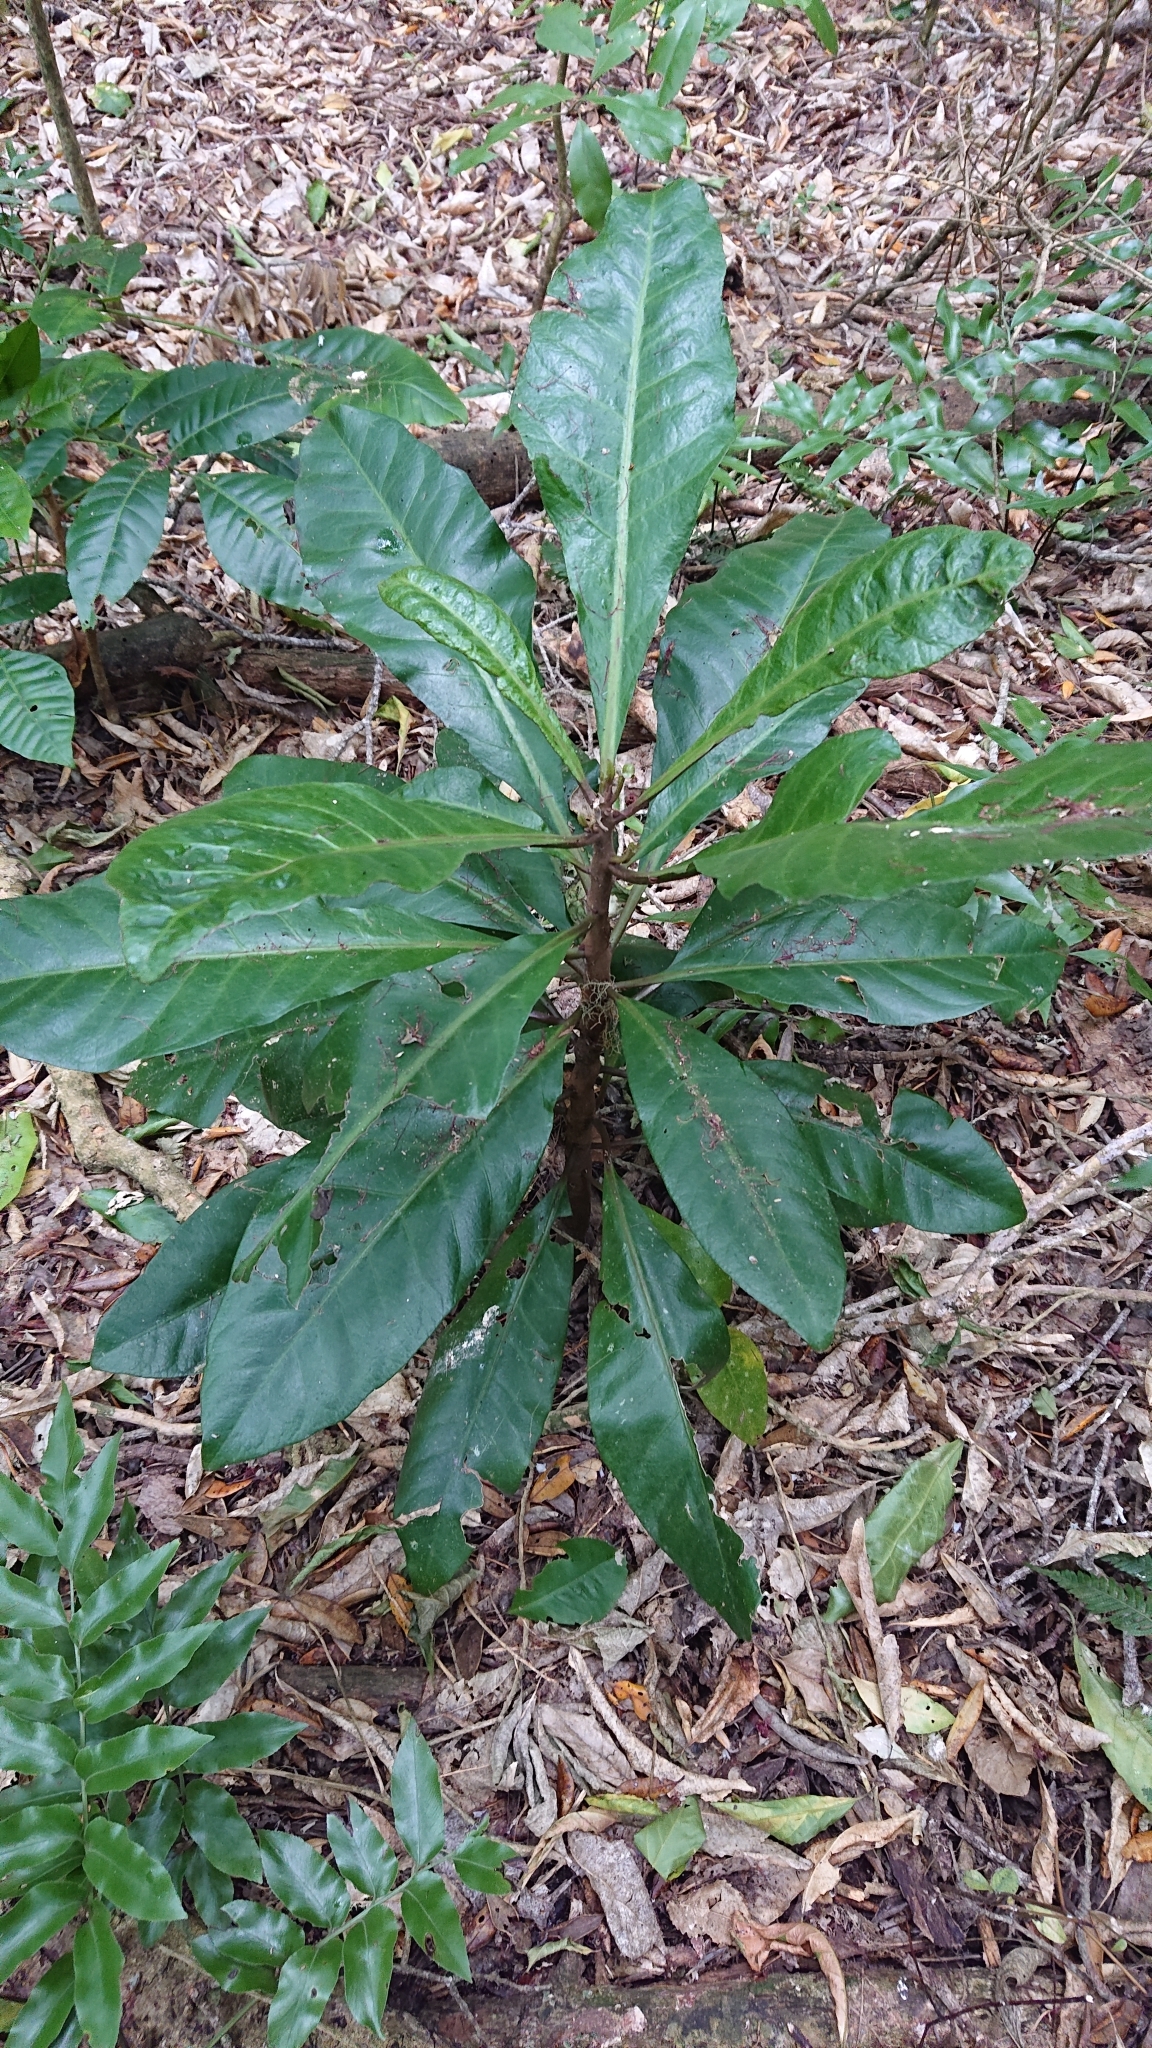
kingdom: Plantae
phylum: Tracheophyta
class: Magnoliopsida
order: Caryophyllales
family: Nyctaginaceae
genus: Ceodes
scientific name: Ceodes brunoniana
